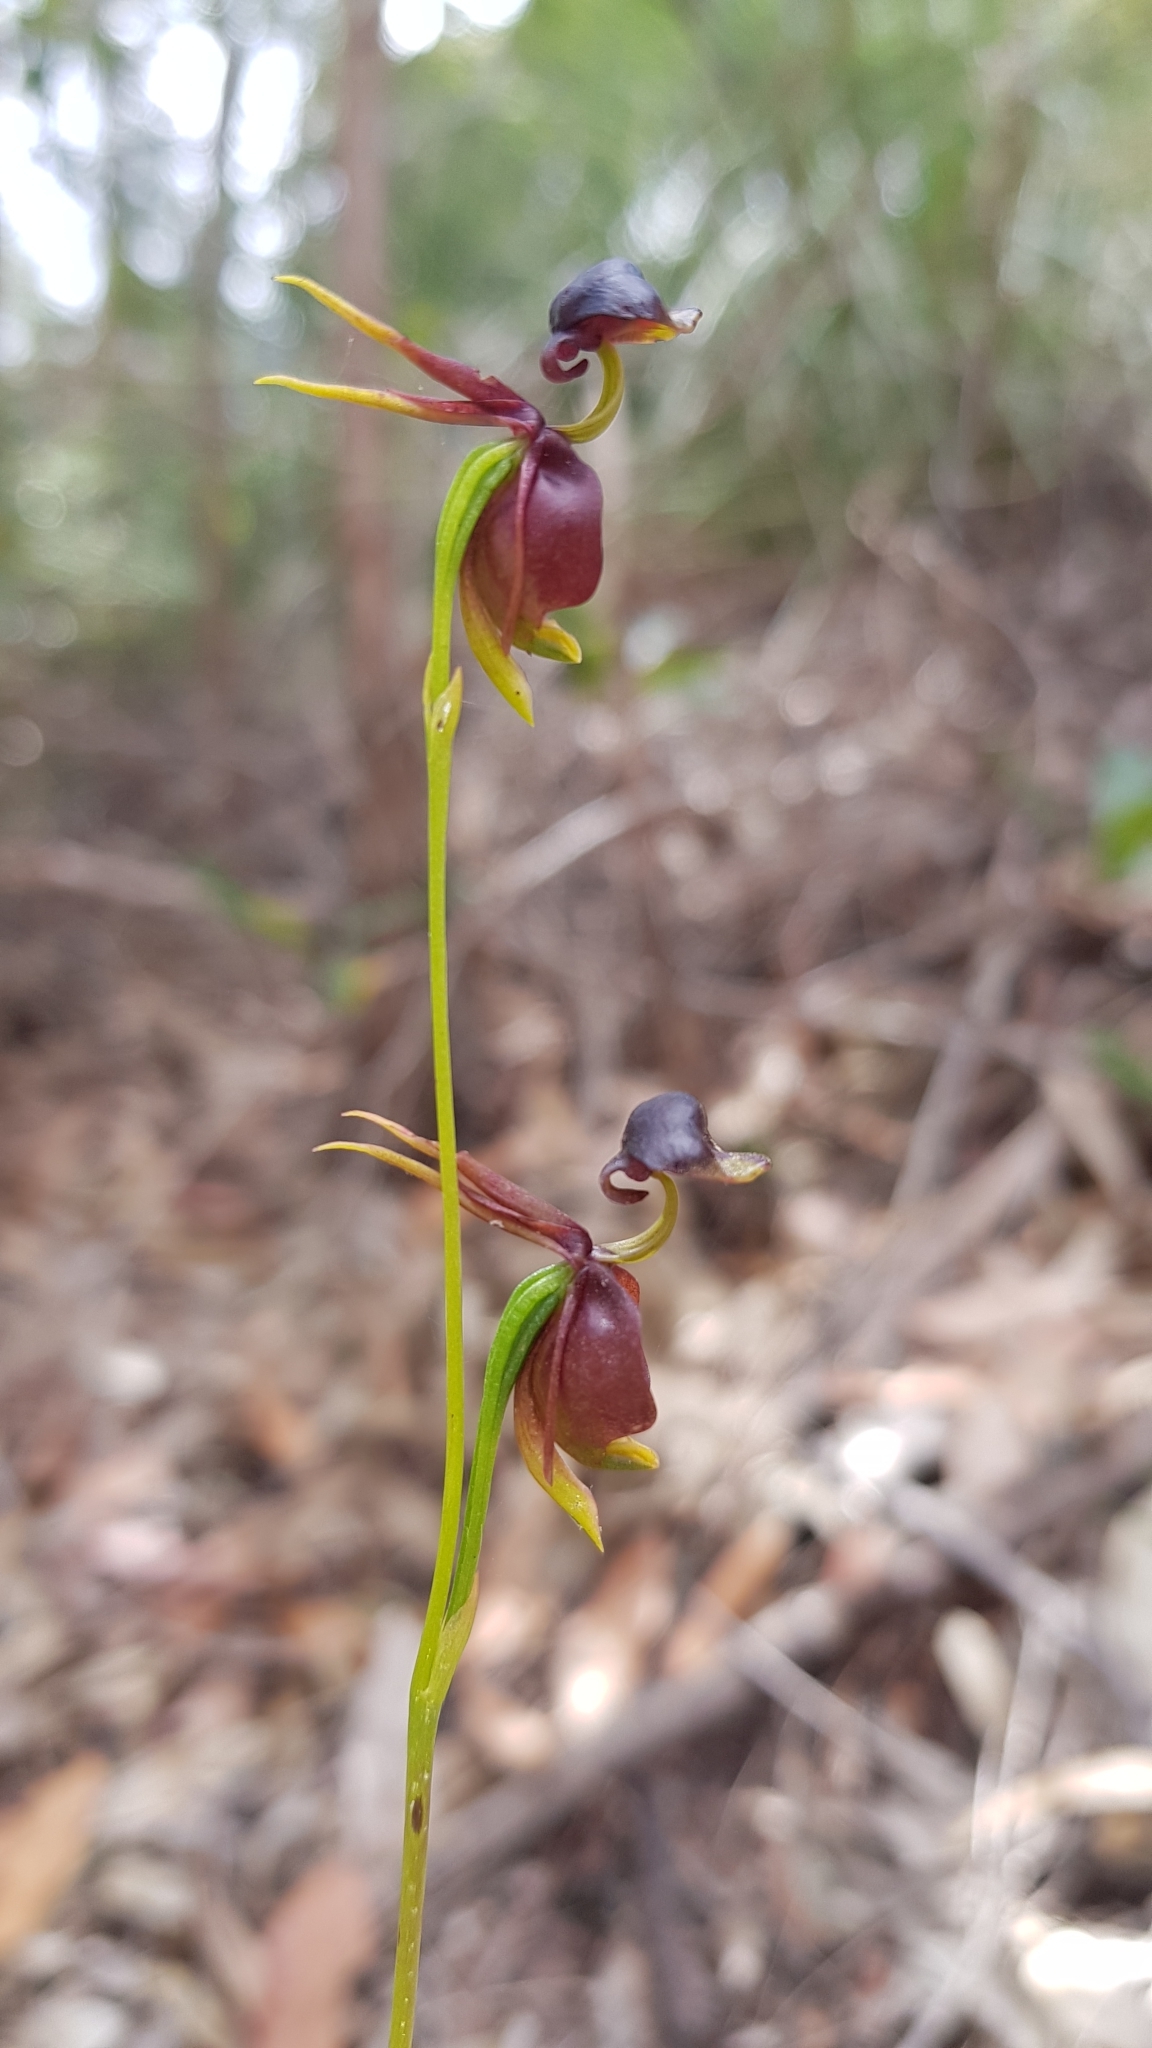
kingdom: Plantae
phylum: Tracheophyta
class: Liliopsida
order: Asparagales
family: Orchidaceae
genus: Caleana
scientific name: Caleana major
